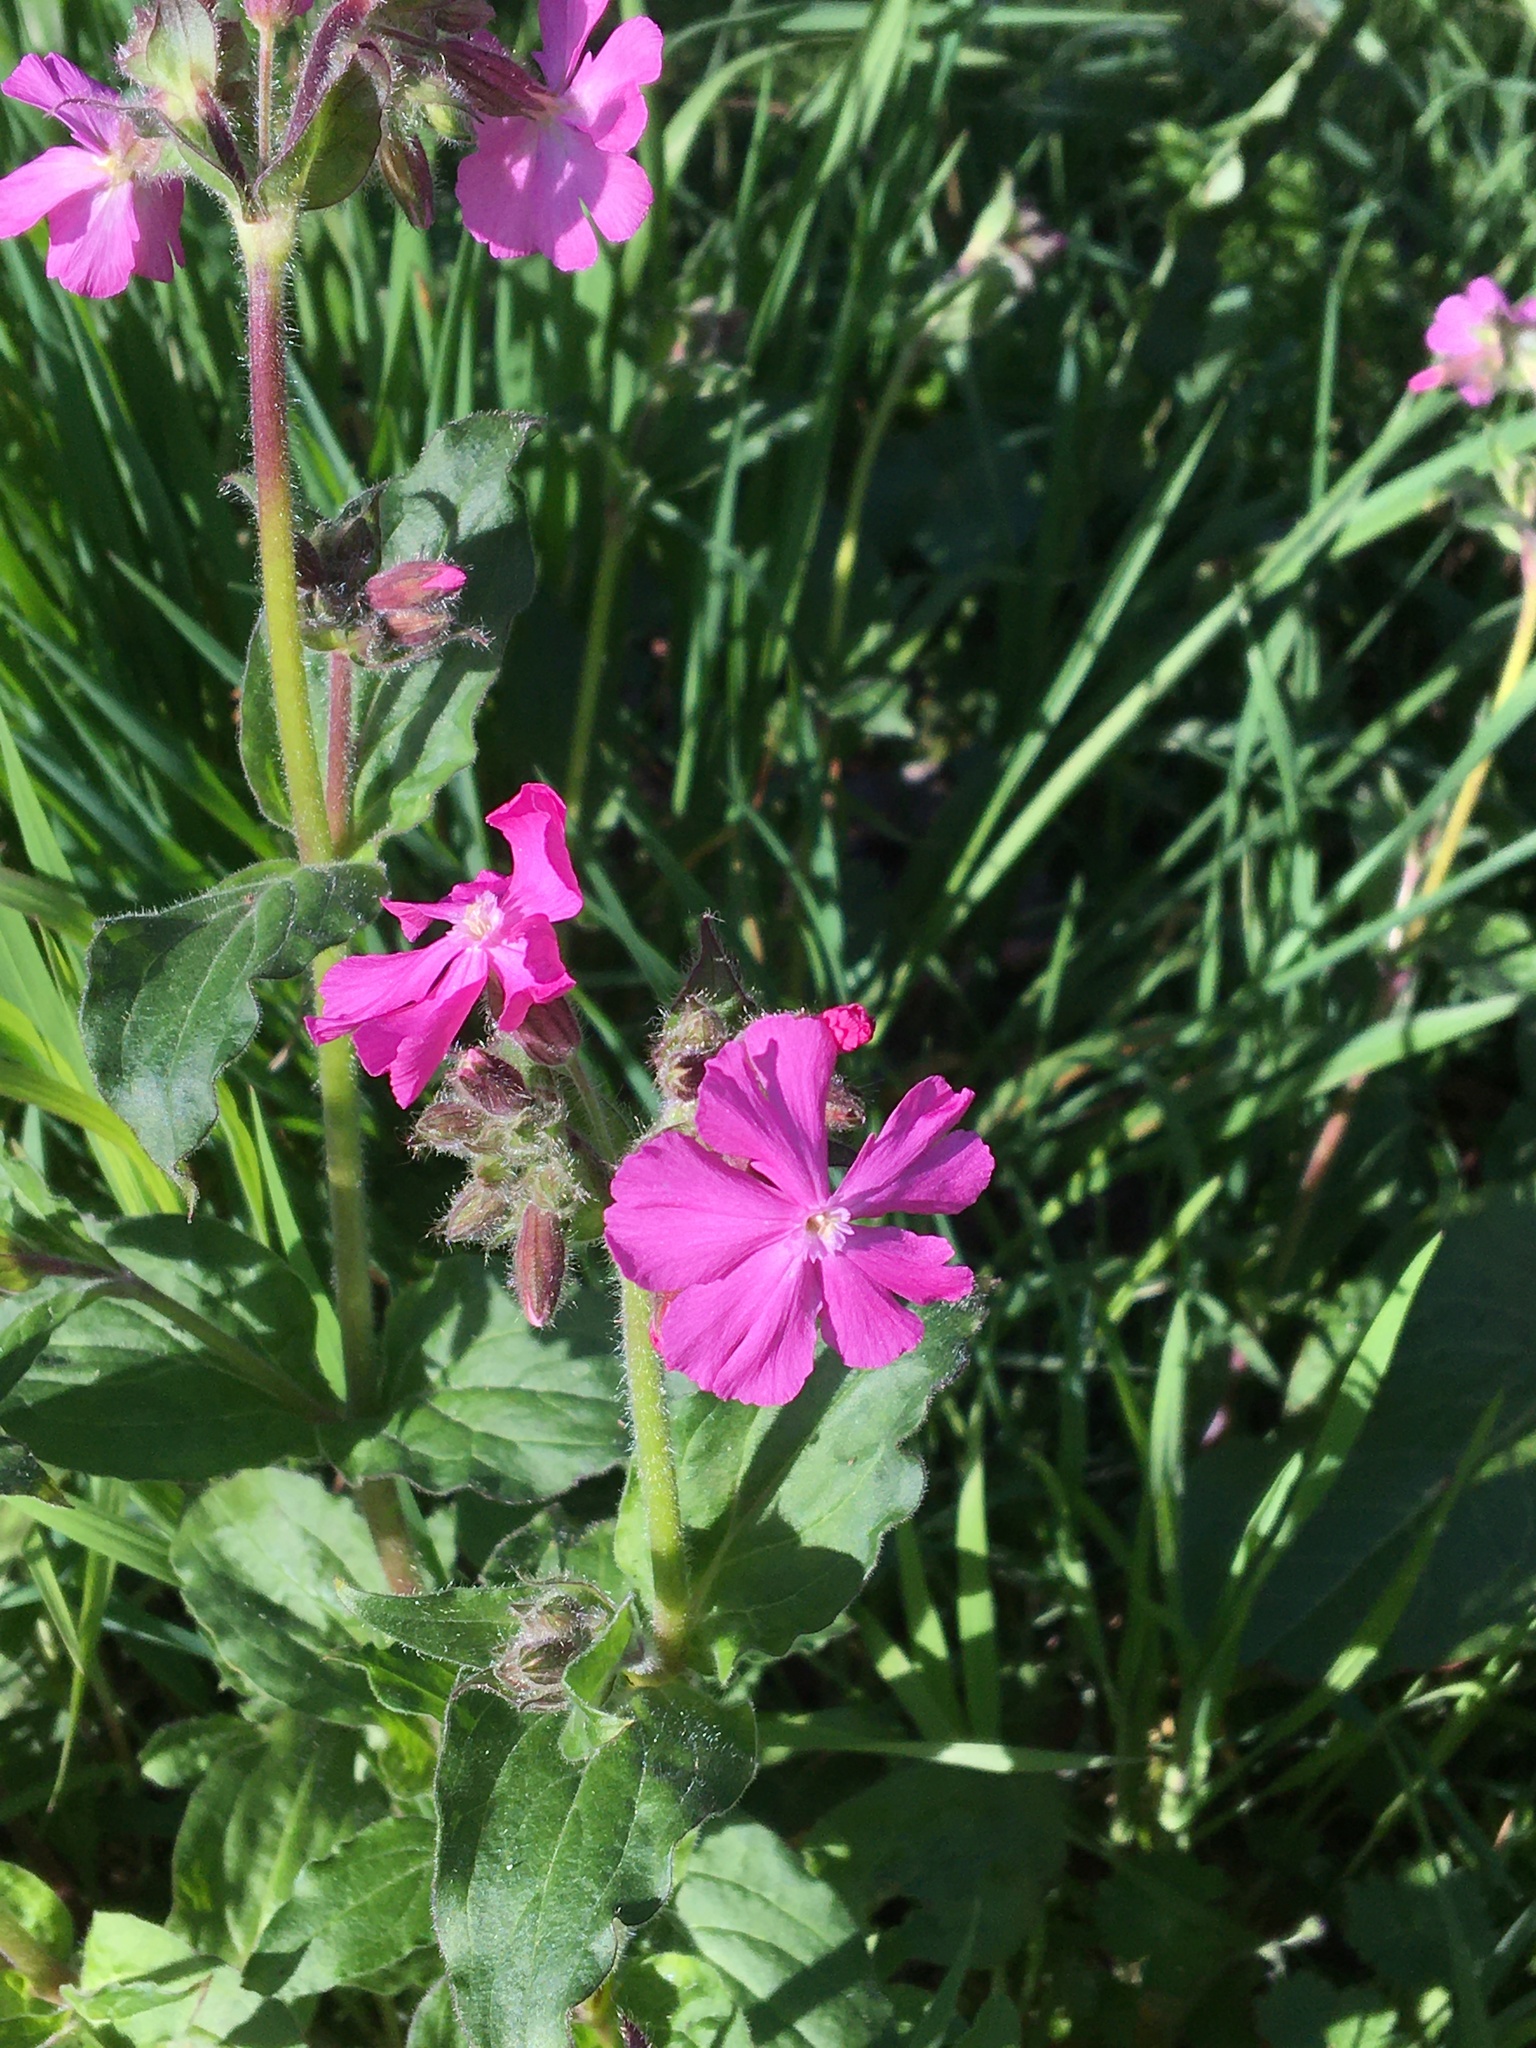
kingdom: Plantae
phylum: Tracheophyta
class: Magnoliopsida
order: Caryophyllales
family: Caryophyllaceae
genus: Silene
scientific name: Silene dioica
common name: Red campion
